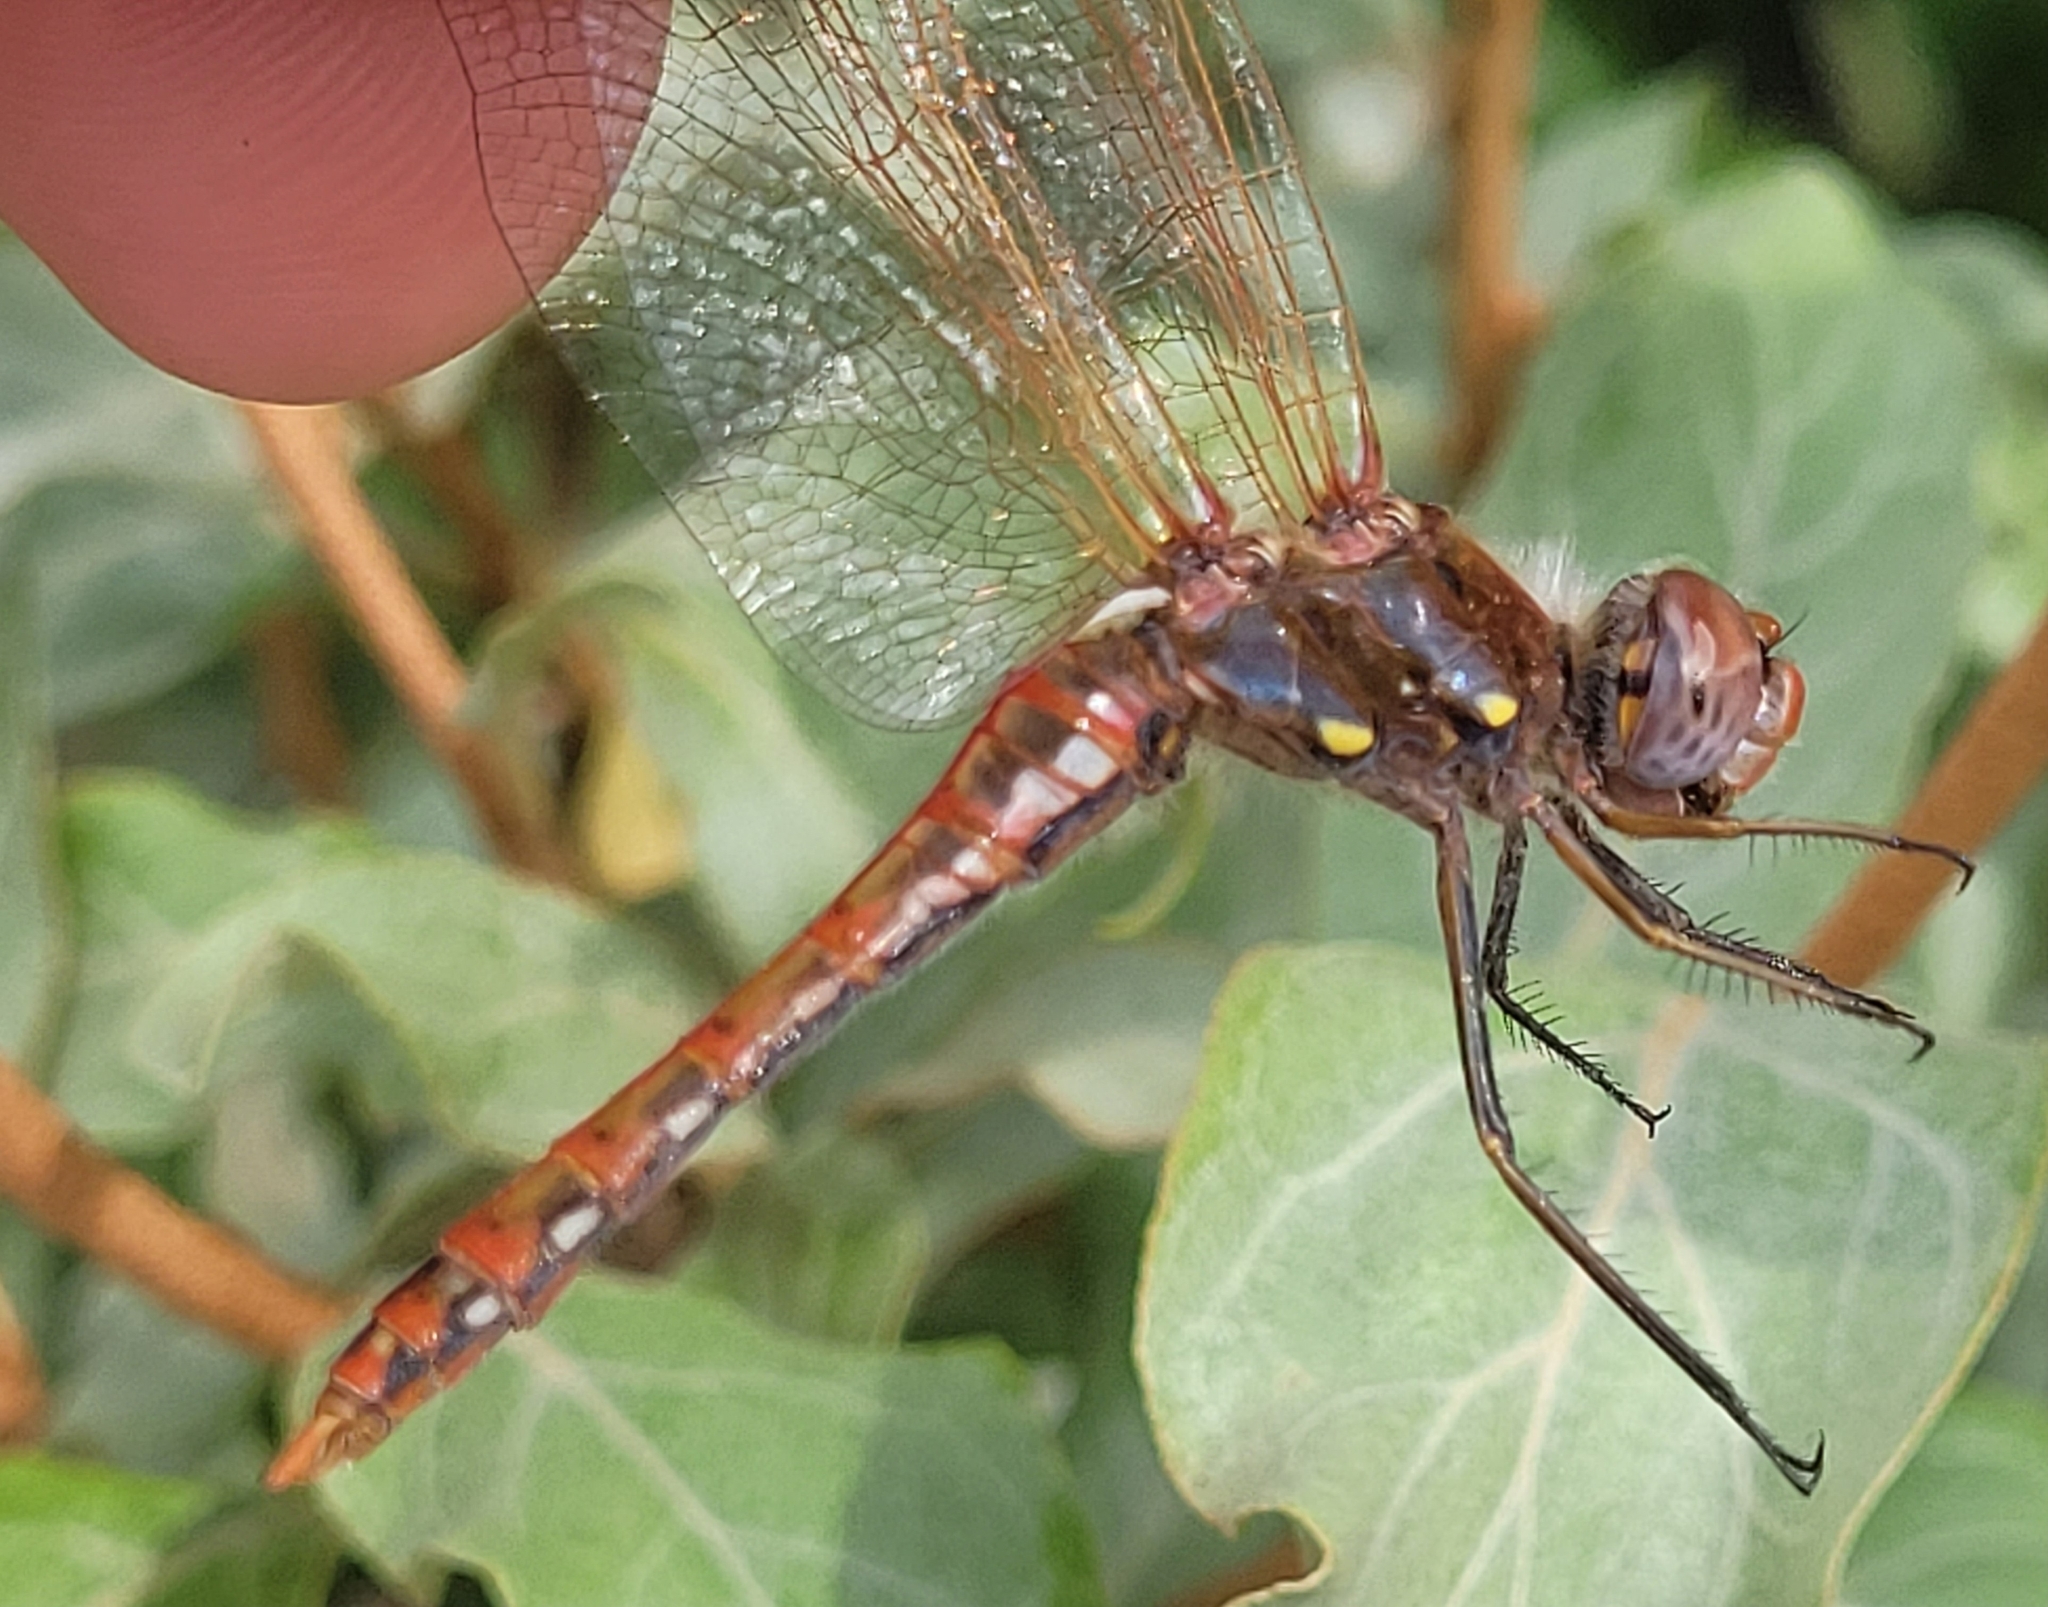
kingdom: Animalia
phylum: Arthropoda
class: Insecta
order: Odonata
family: Libellulidae
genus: Sympetrum
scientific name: Sympetrum corruptum
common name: Variegated meadowhawk
